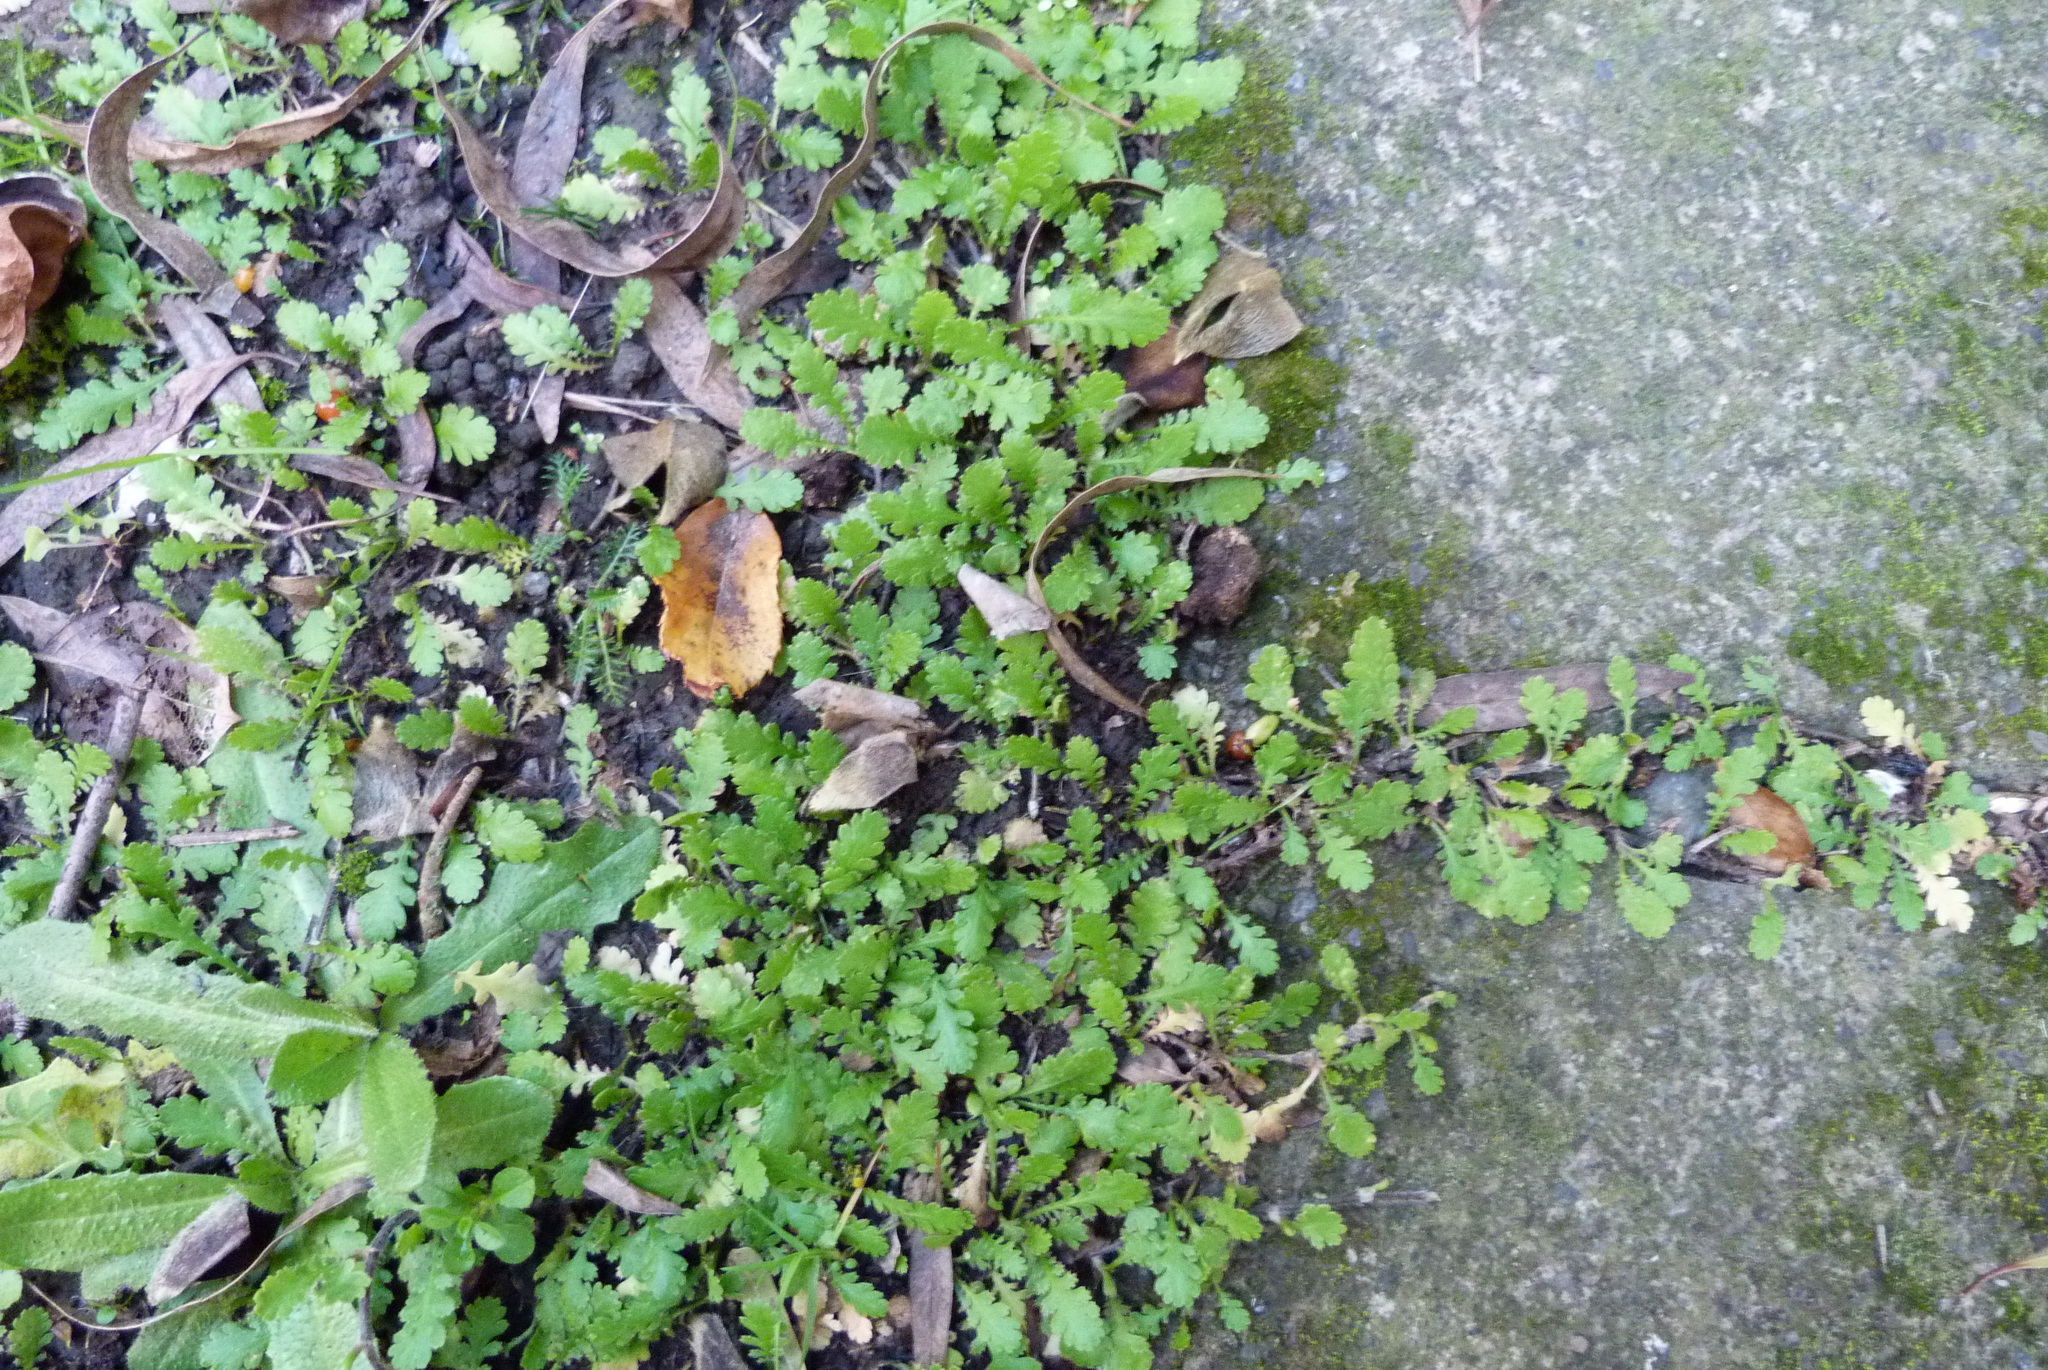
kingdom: Plantae
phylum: Tracheophyta
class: Magnoliopsida
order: Asterales
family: Asteraceae
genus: Leptinella
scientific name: Leptinella dioica
